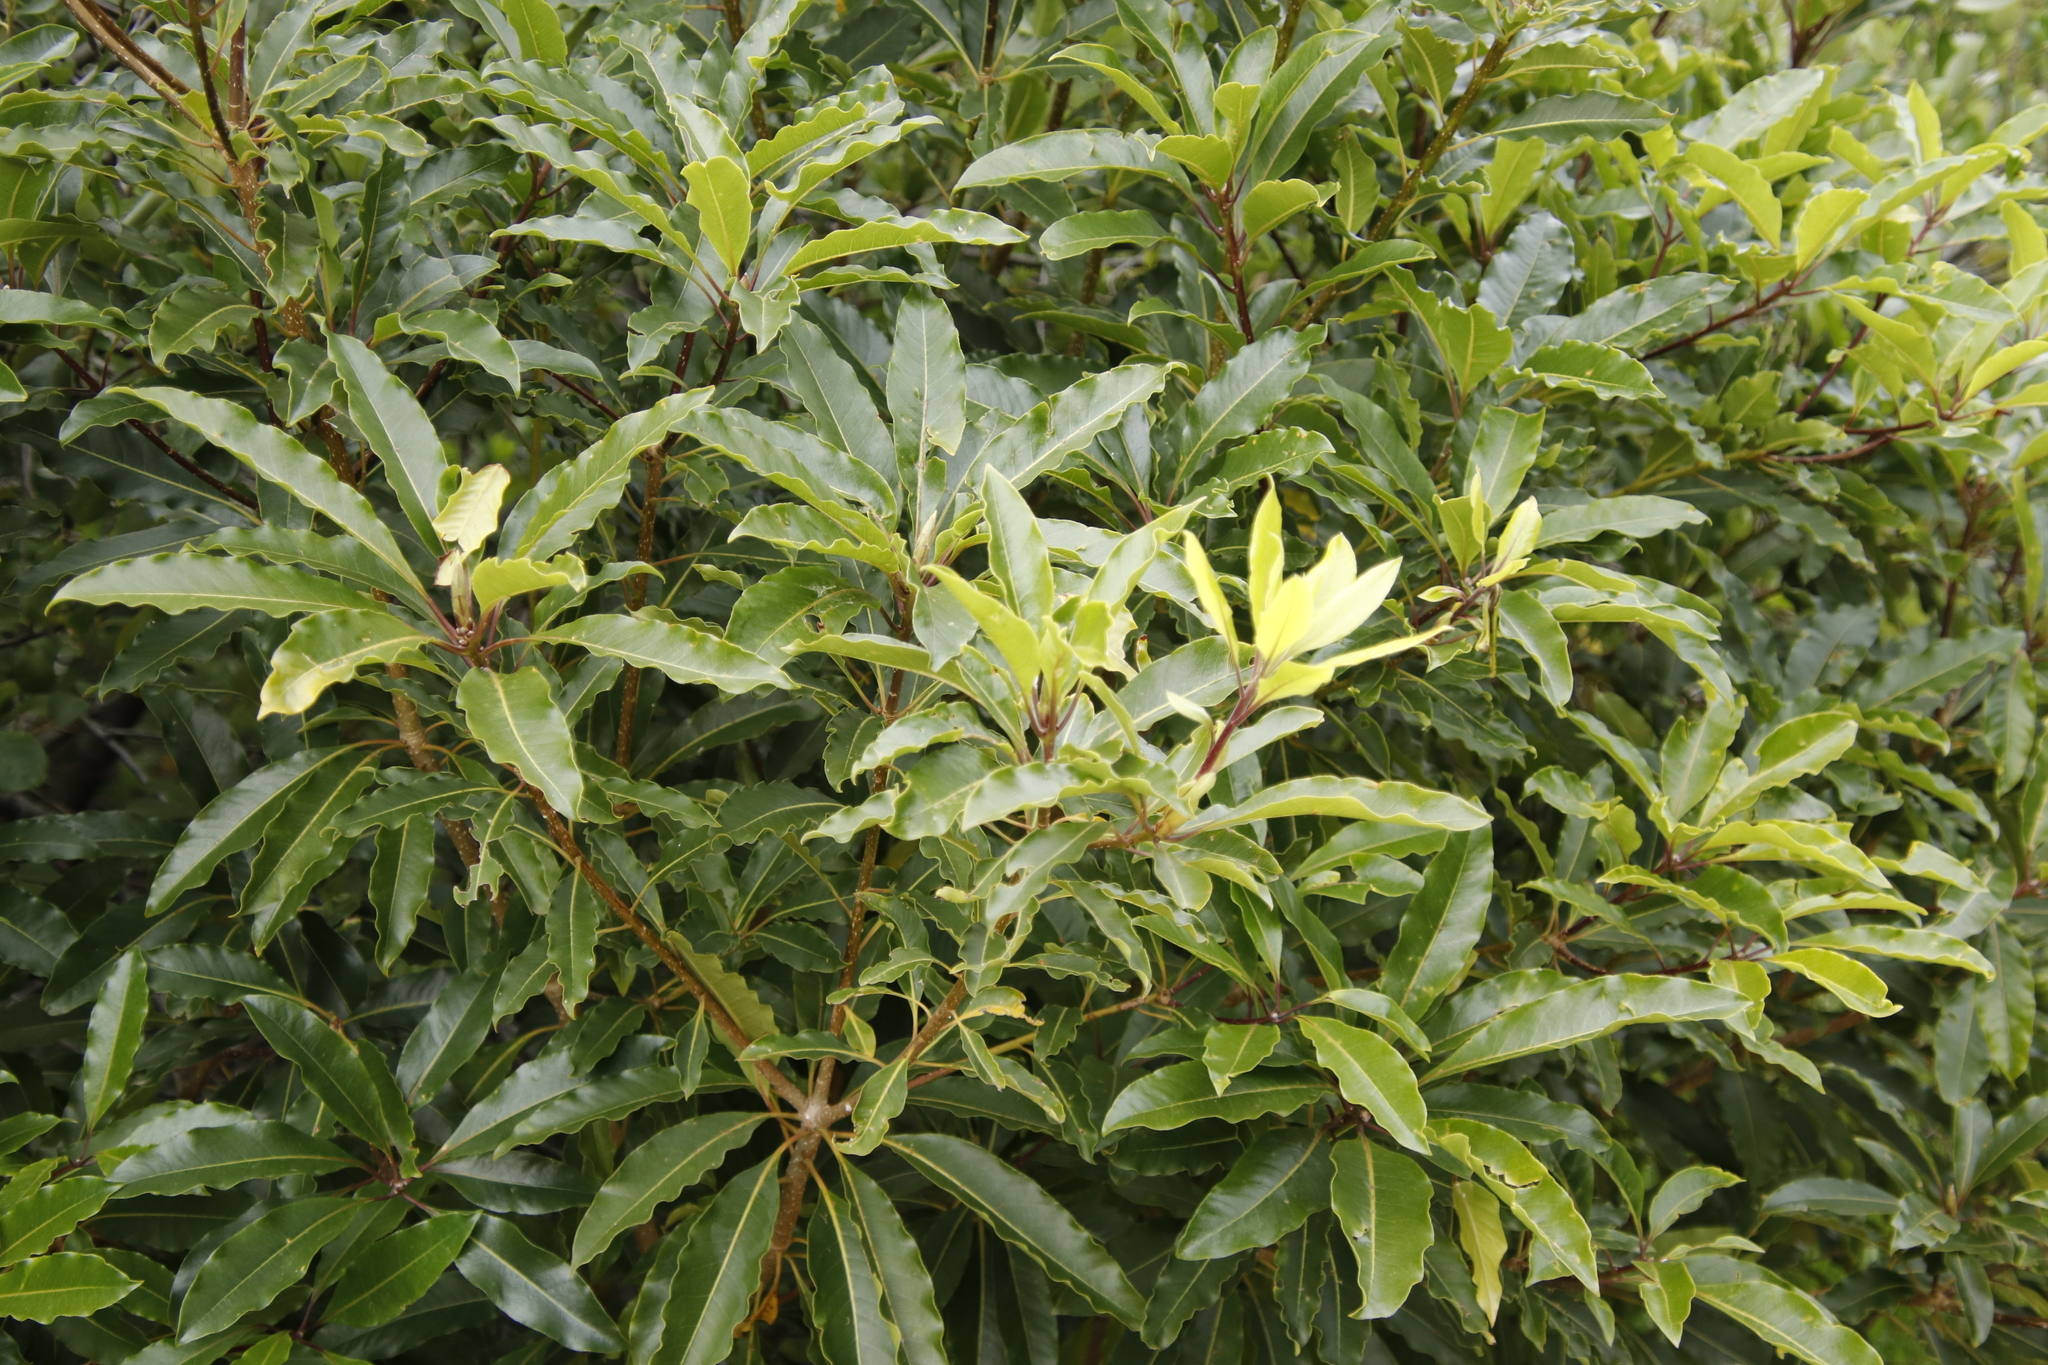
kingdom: Plantae
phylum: Tracheophyta
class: Magnoliopsida
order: Apiales
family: Pittosporaceae
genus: Pittosporum
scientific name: Pittosporum undulatum
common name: Australian cheesewood
